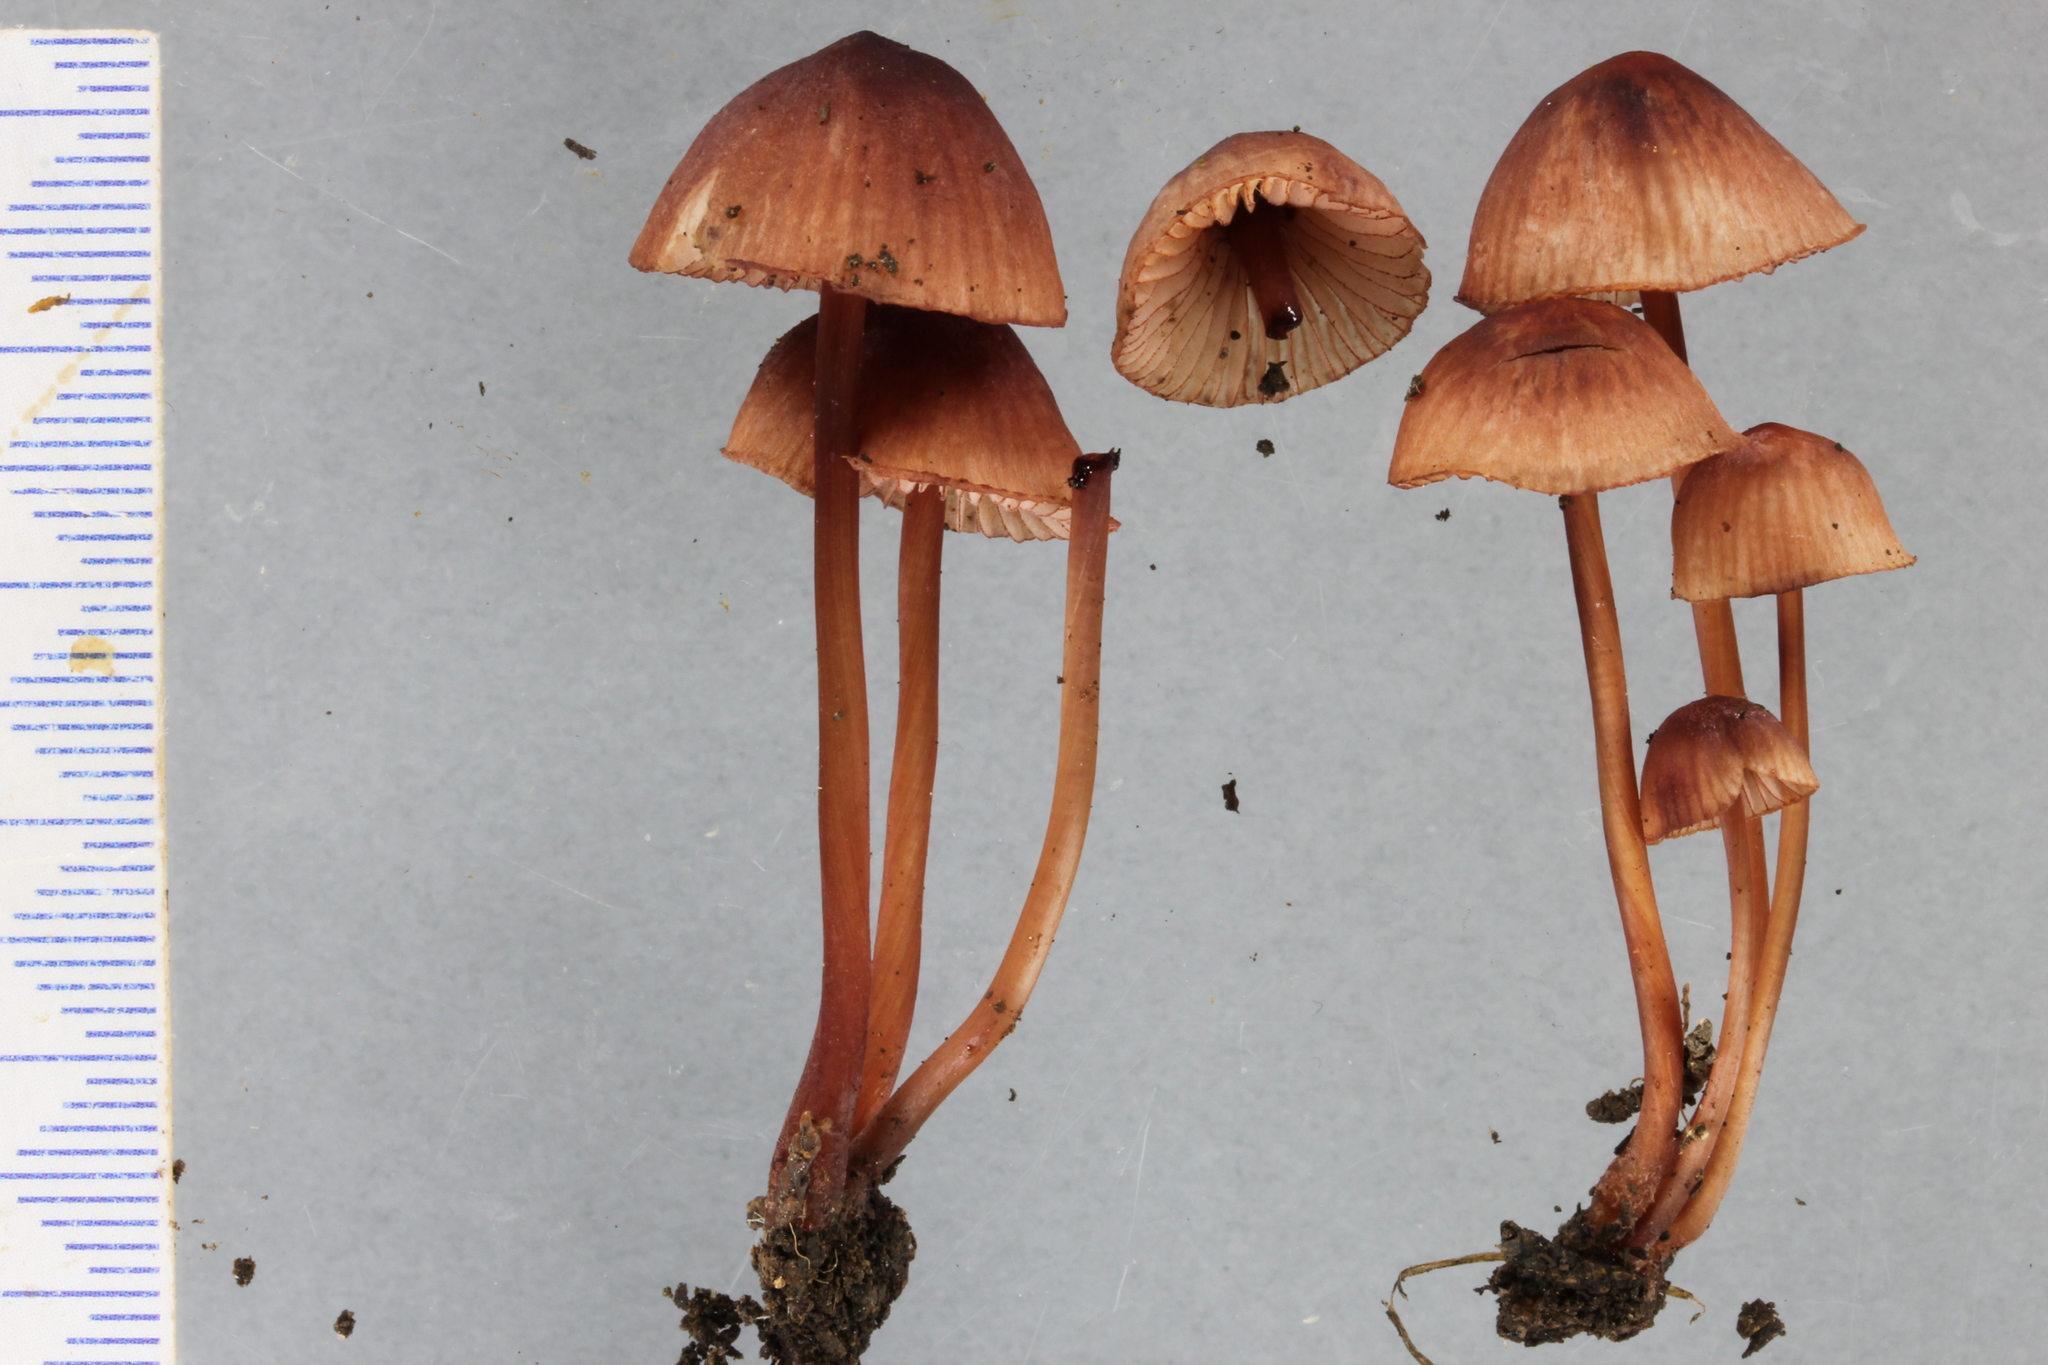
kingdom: Fungi
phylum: Basidiomycota
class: Agaricomycetes
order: Agaricales
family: Mycenaceae
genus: Mycena
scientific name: Mycena mariae
